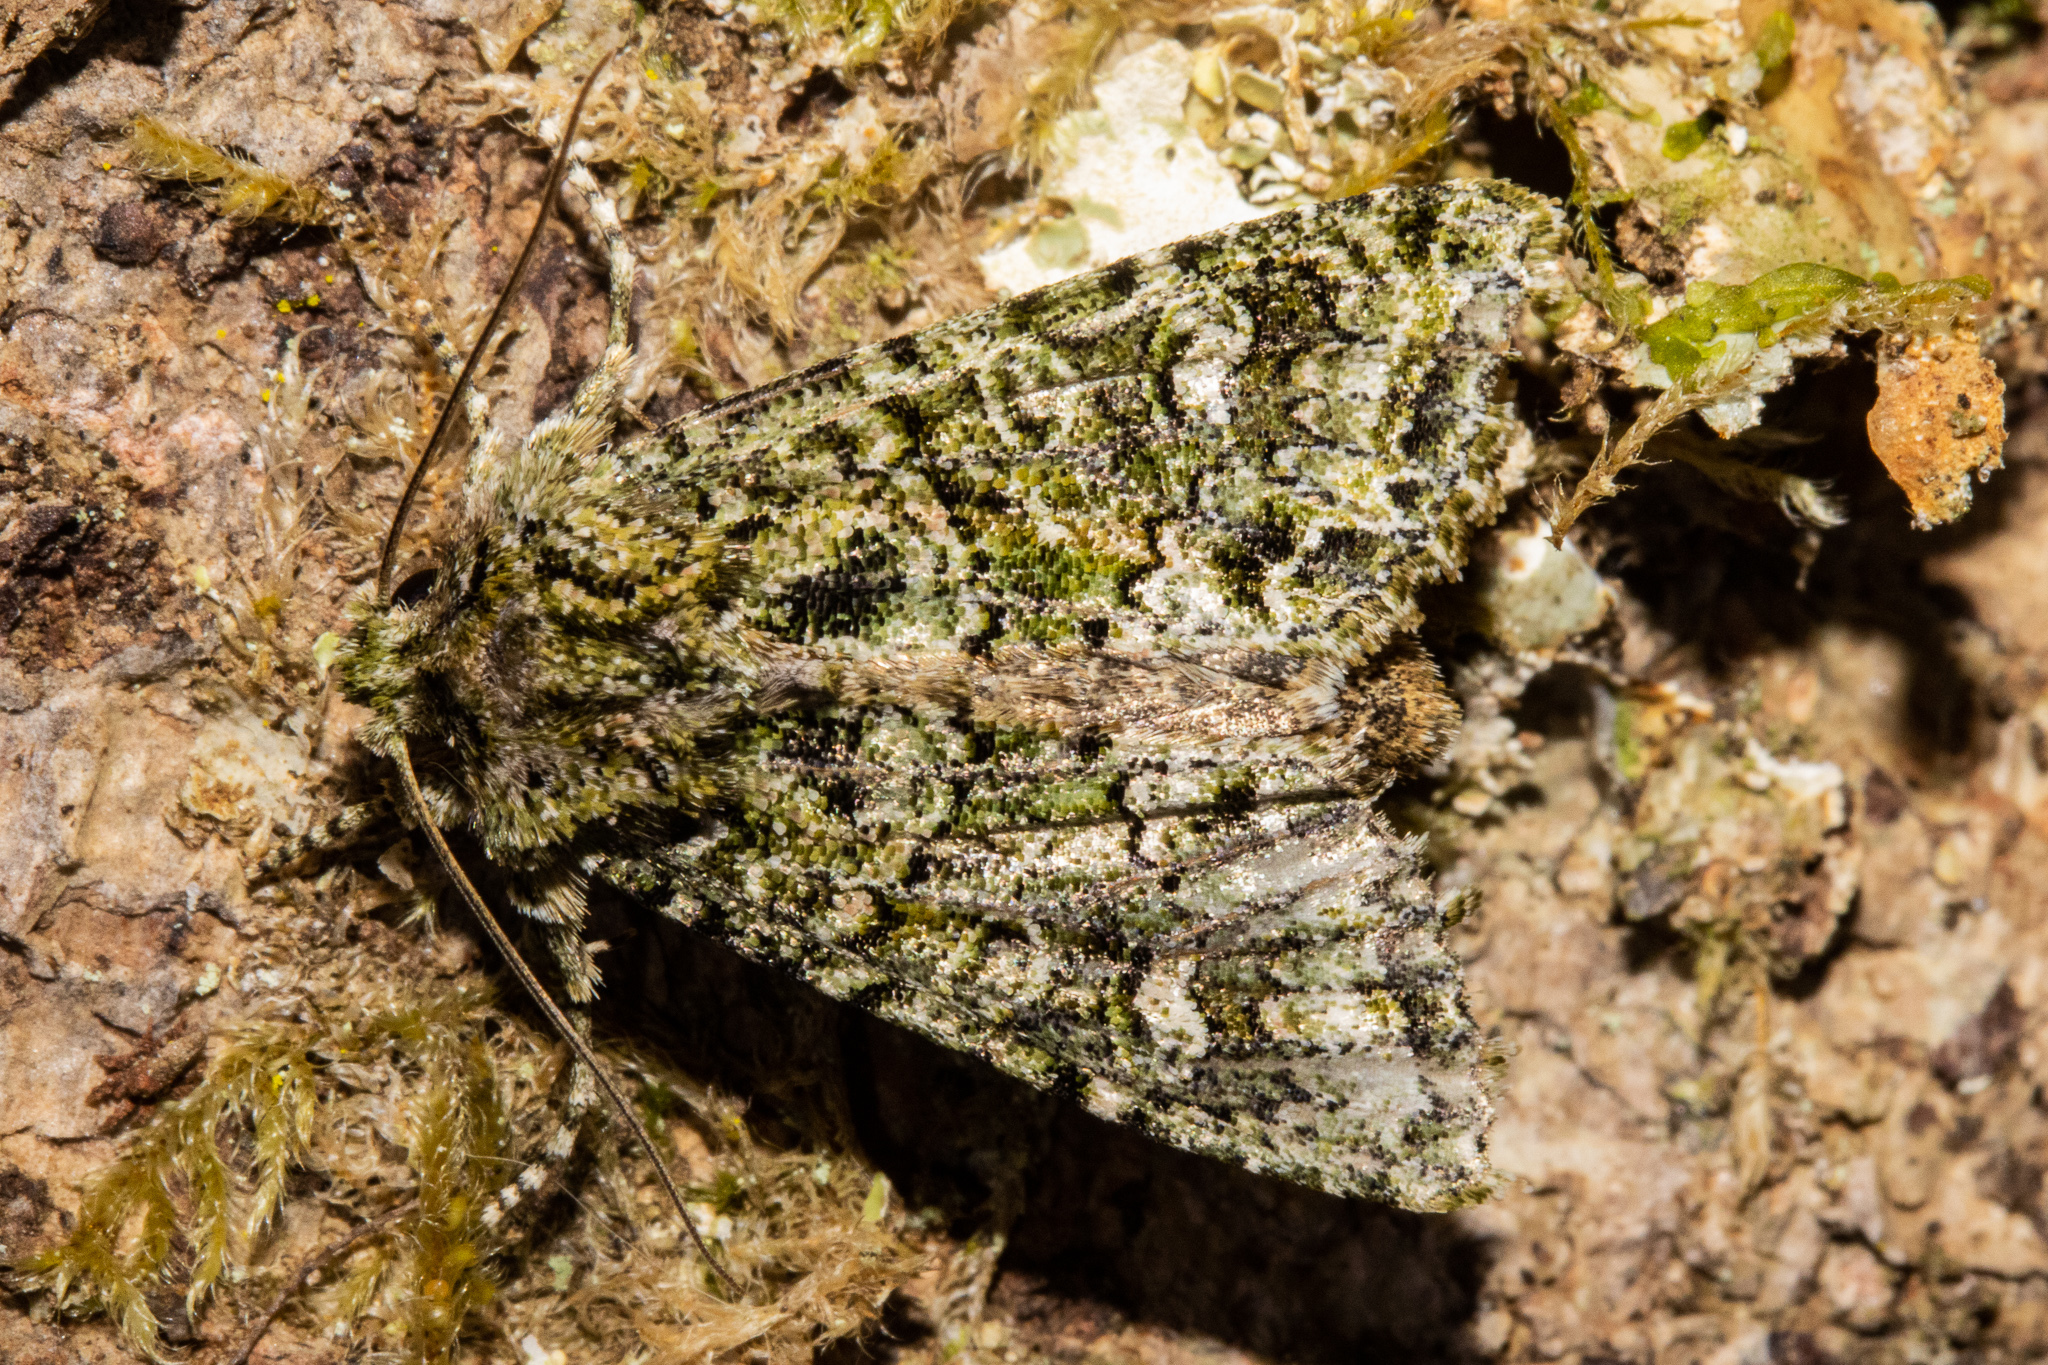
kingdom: Animalia
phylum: Arthropoda
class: Insecta
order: Lepidoptera
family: Noctuidae
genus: Ichneutica
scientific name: Ichneutica
